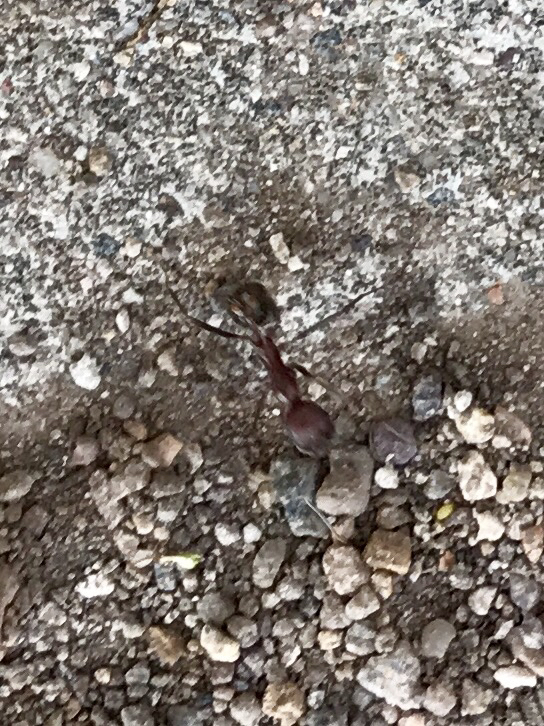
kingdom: Animalia
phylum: Arthropoda
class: Insecta
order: Hymenoptera
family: Formicidae
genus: Novomessor
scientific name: Novomessor albisetosa
